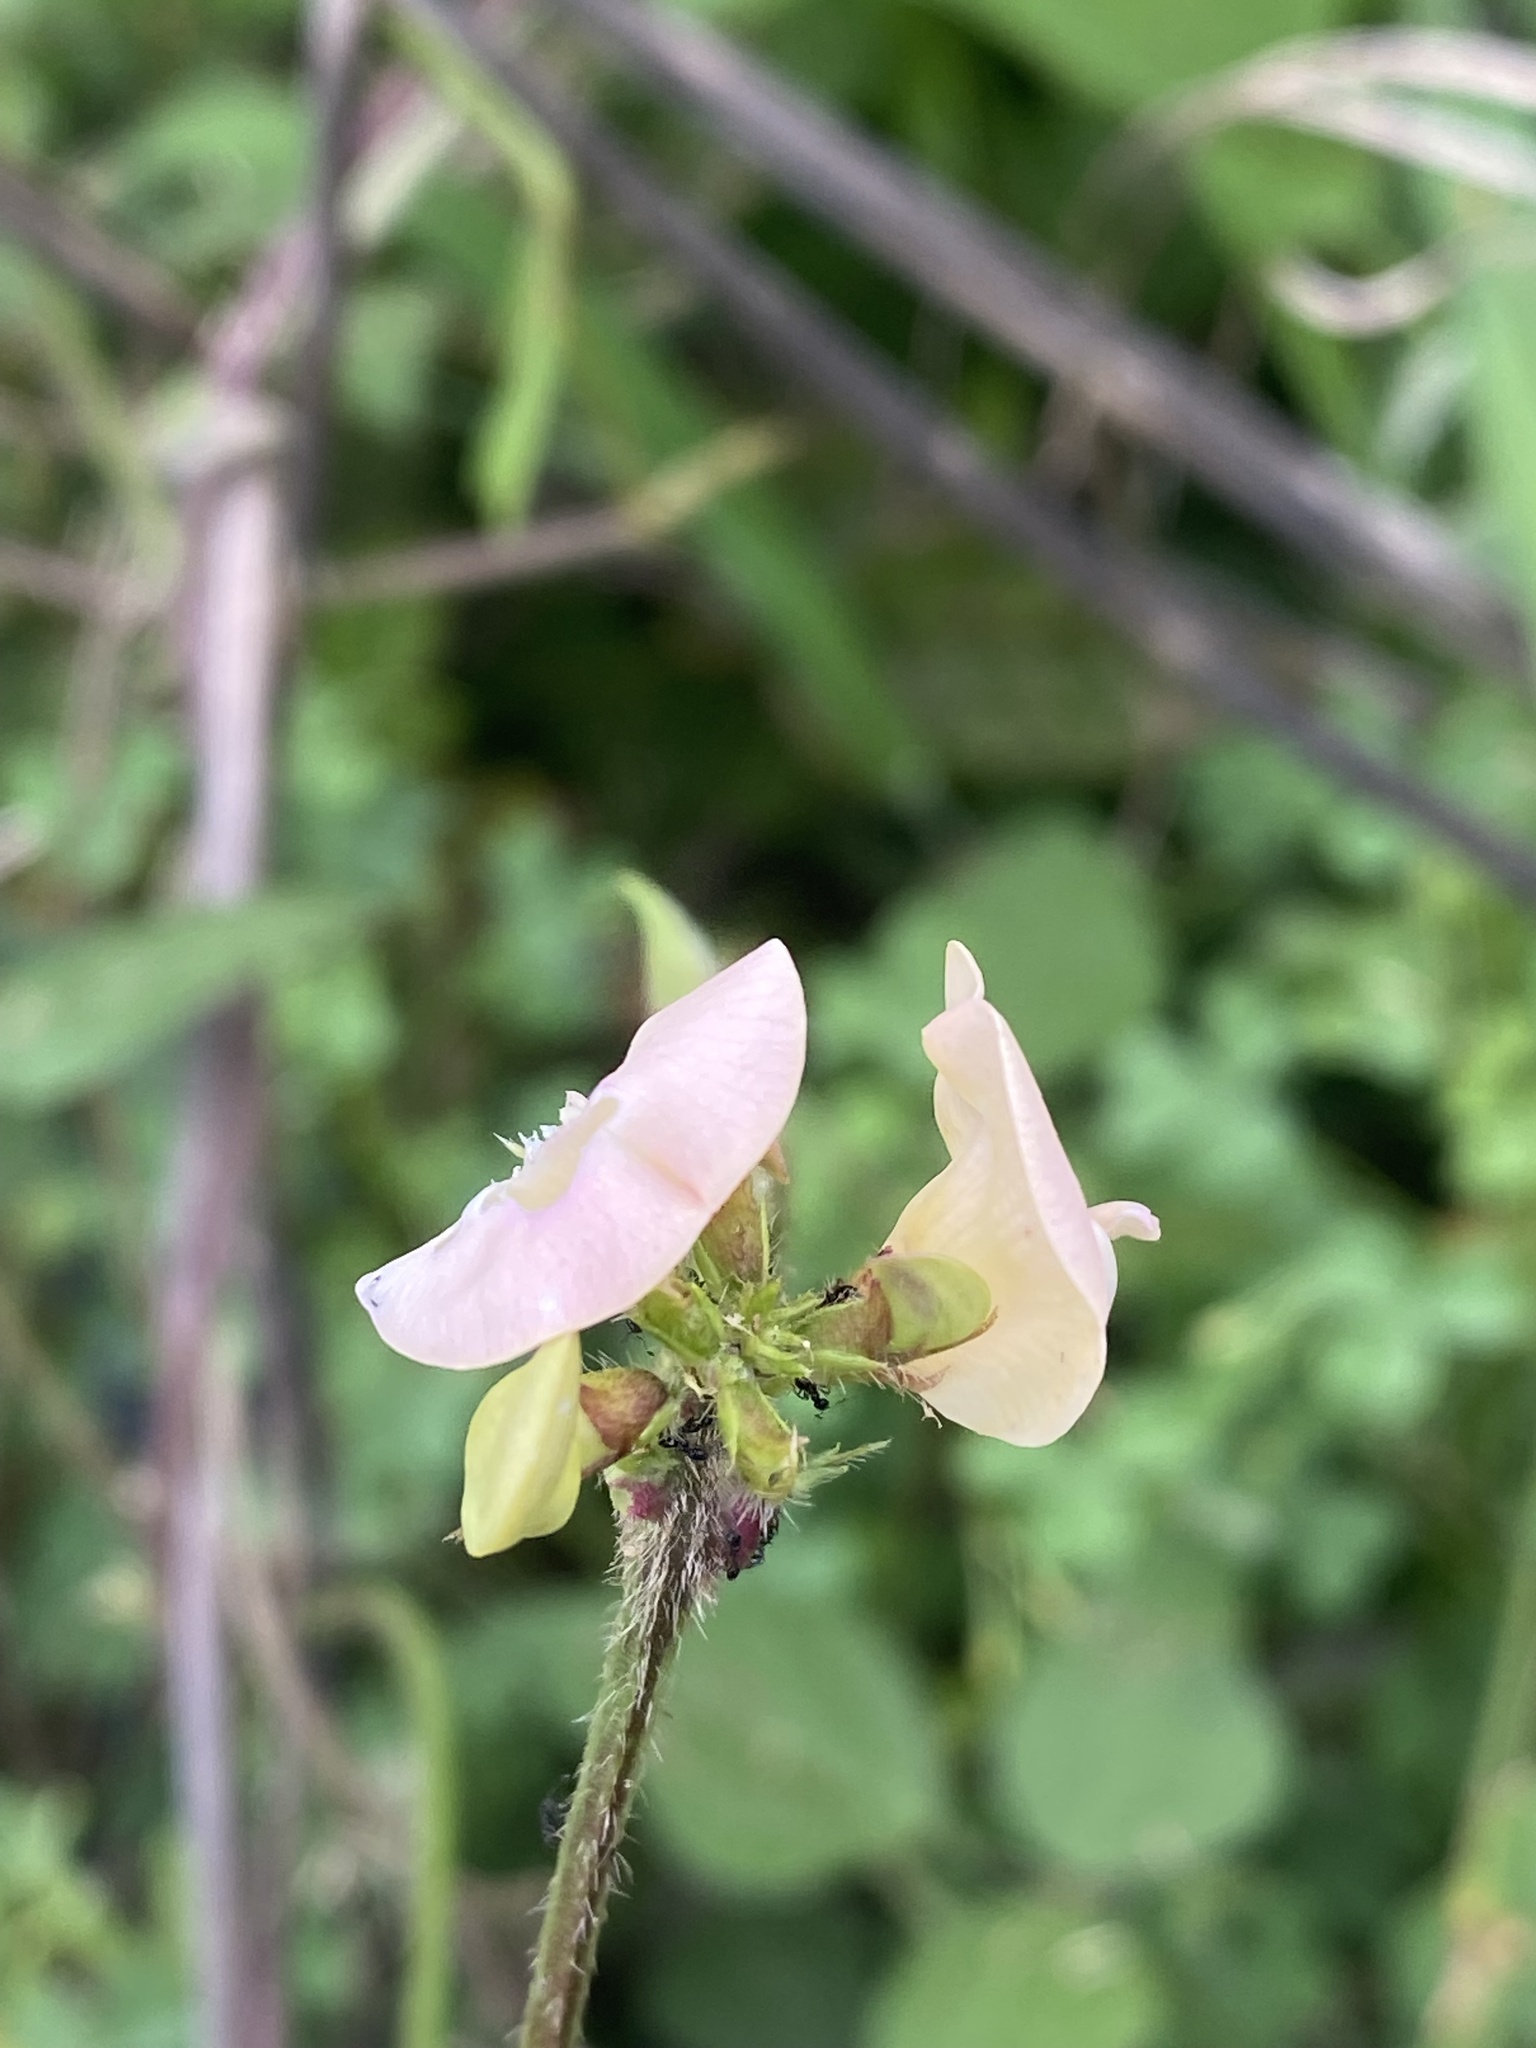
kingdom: Plantae
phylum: Tracheophyta
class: Magnoliopsida
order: Fabales
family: Fabaceae
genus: Strophostyles
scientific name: Strophostyles helvola
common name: Trailing wild bean
